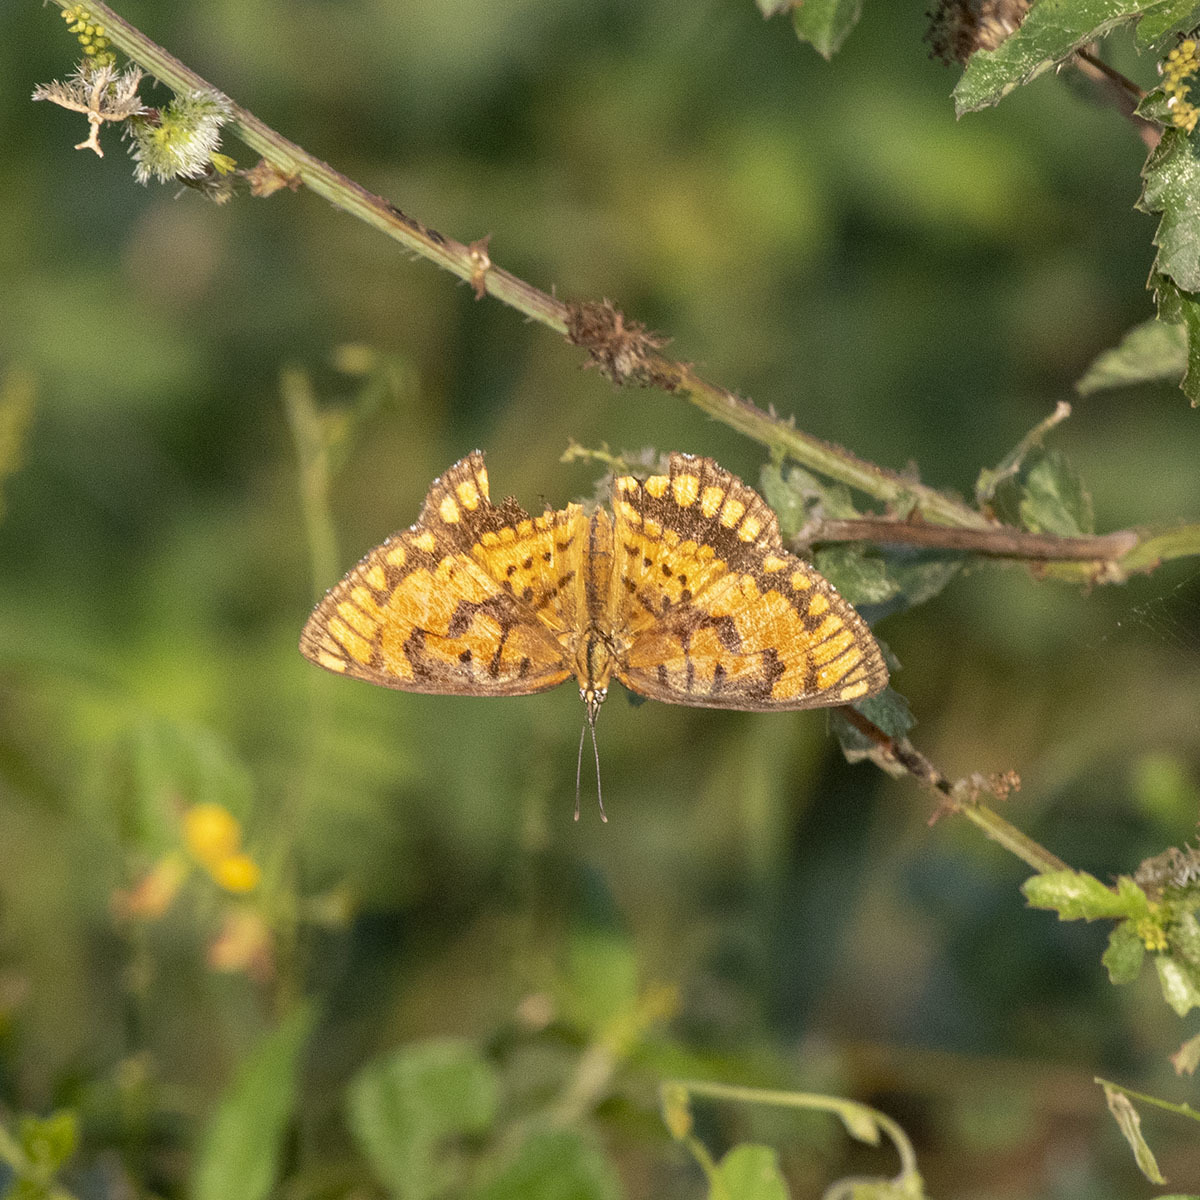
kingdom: Animalia
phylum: Arthropoda
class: Insecta
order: Lepidoptera
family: Nymphalidae
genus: Byblia
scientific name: Byblia ilithyia
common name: Spotted joker
